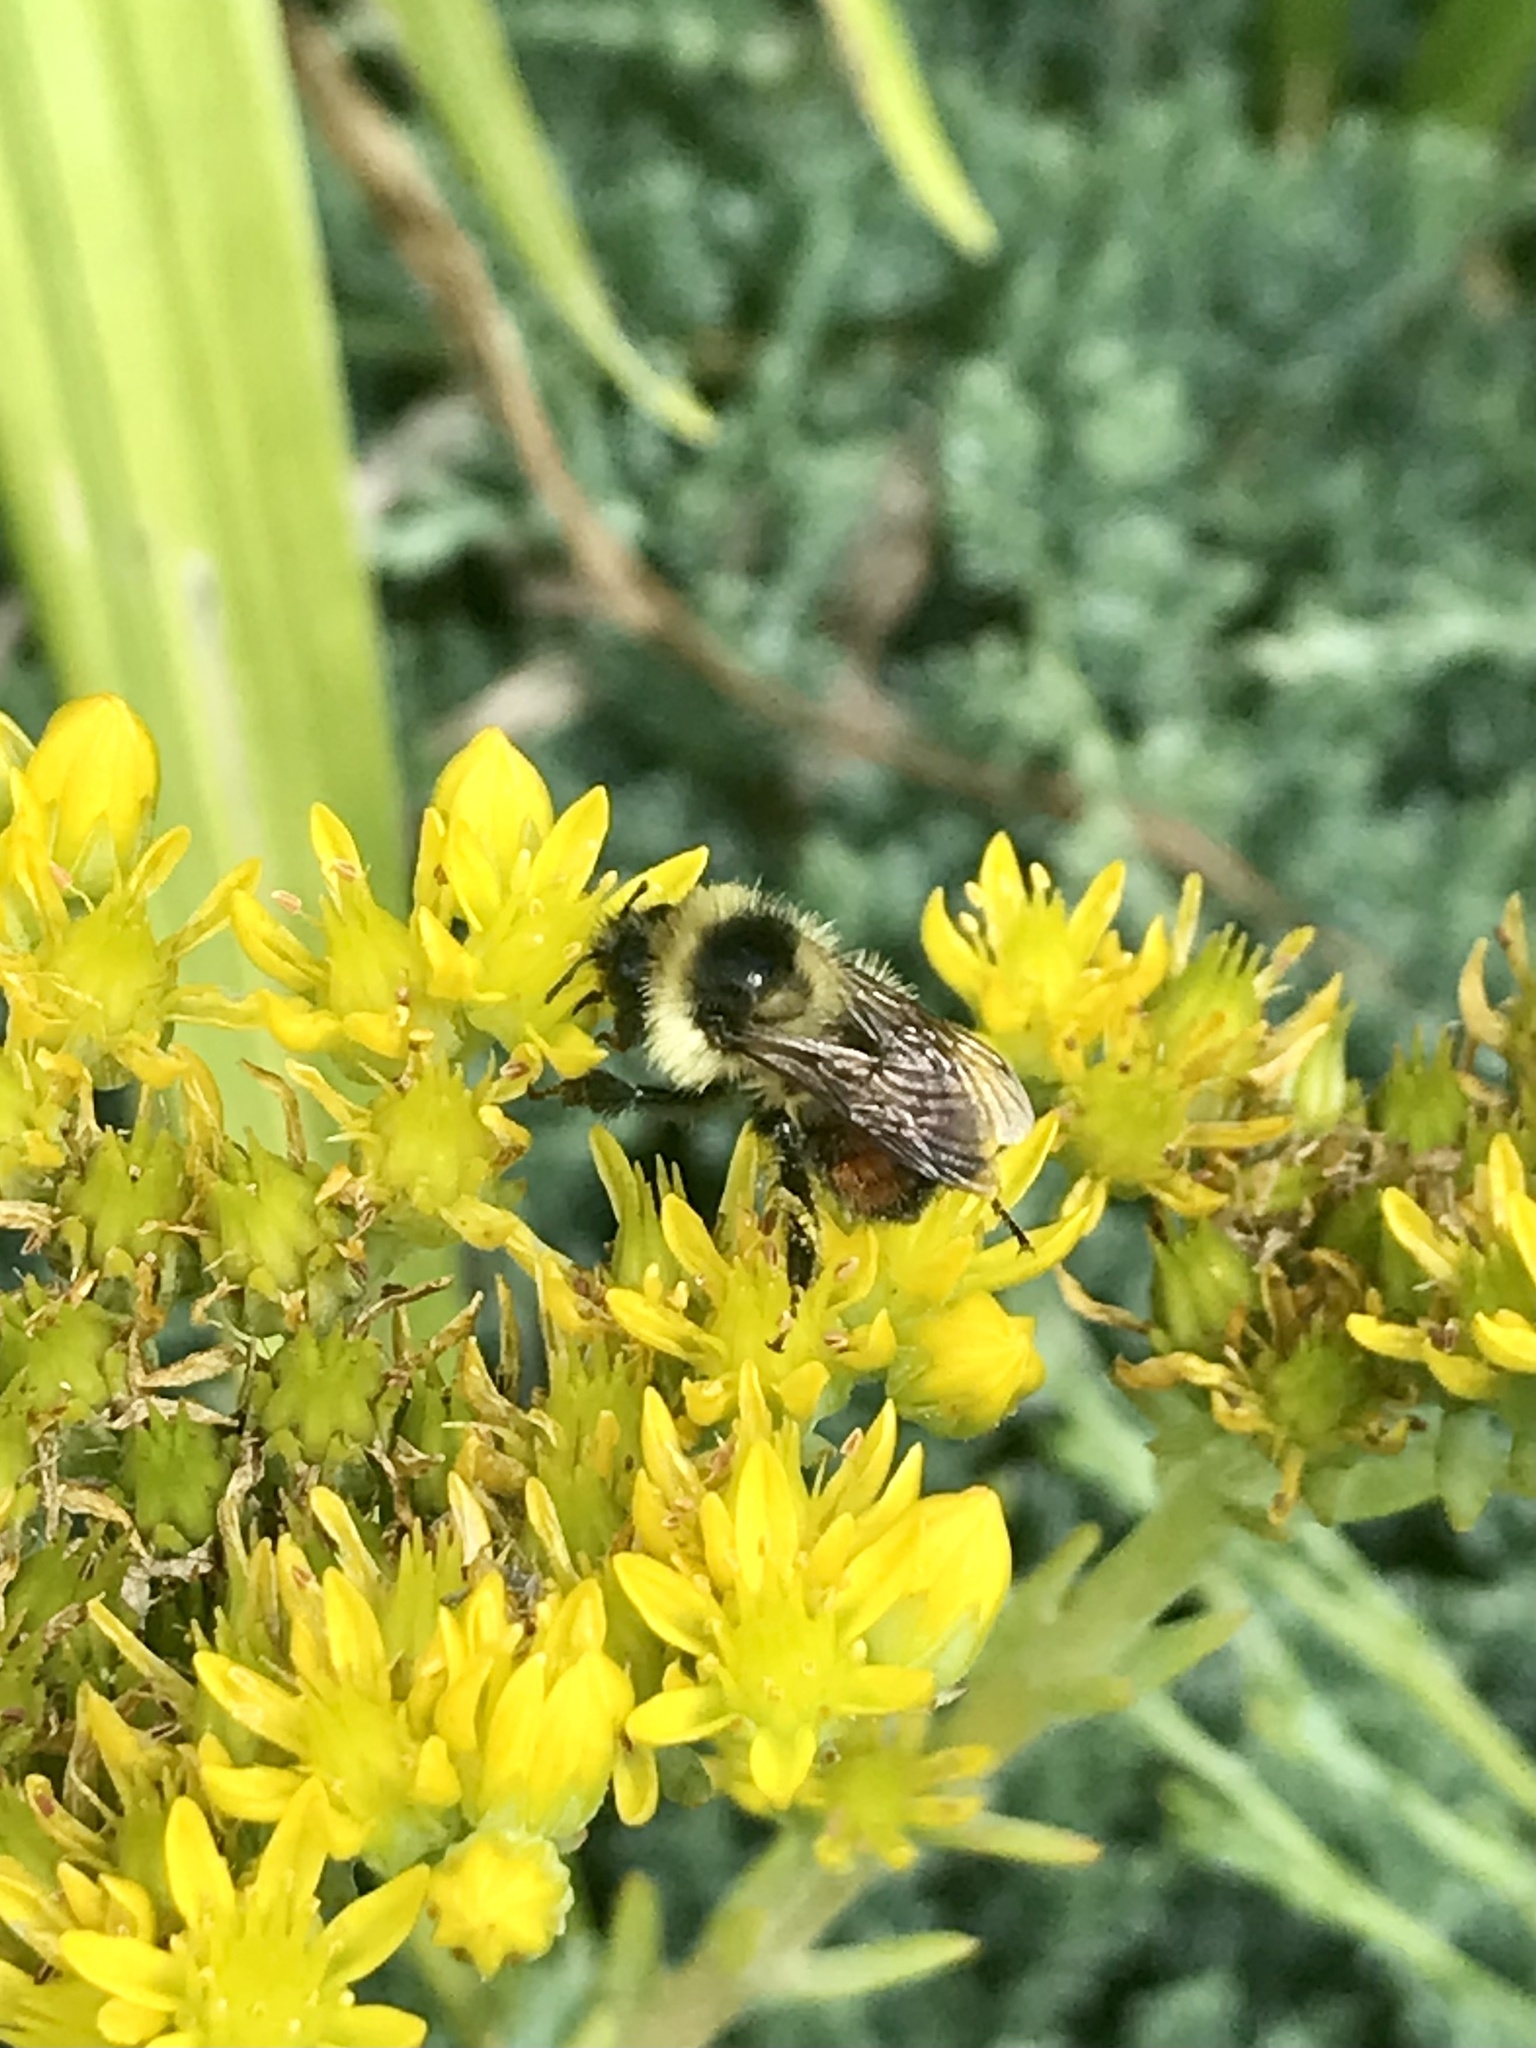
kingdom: Animalia
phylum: Arthropoda
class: Insecta
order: Hymenoptera
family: Apidae
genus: Bombus
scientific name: Bombus rufocinctus
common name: Red-belted bumble bee
